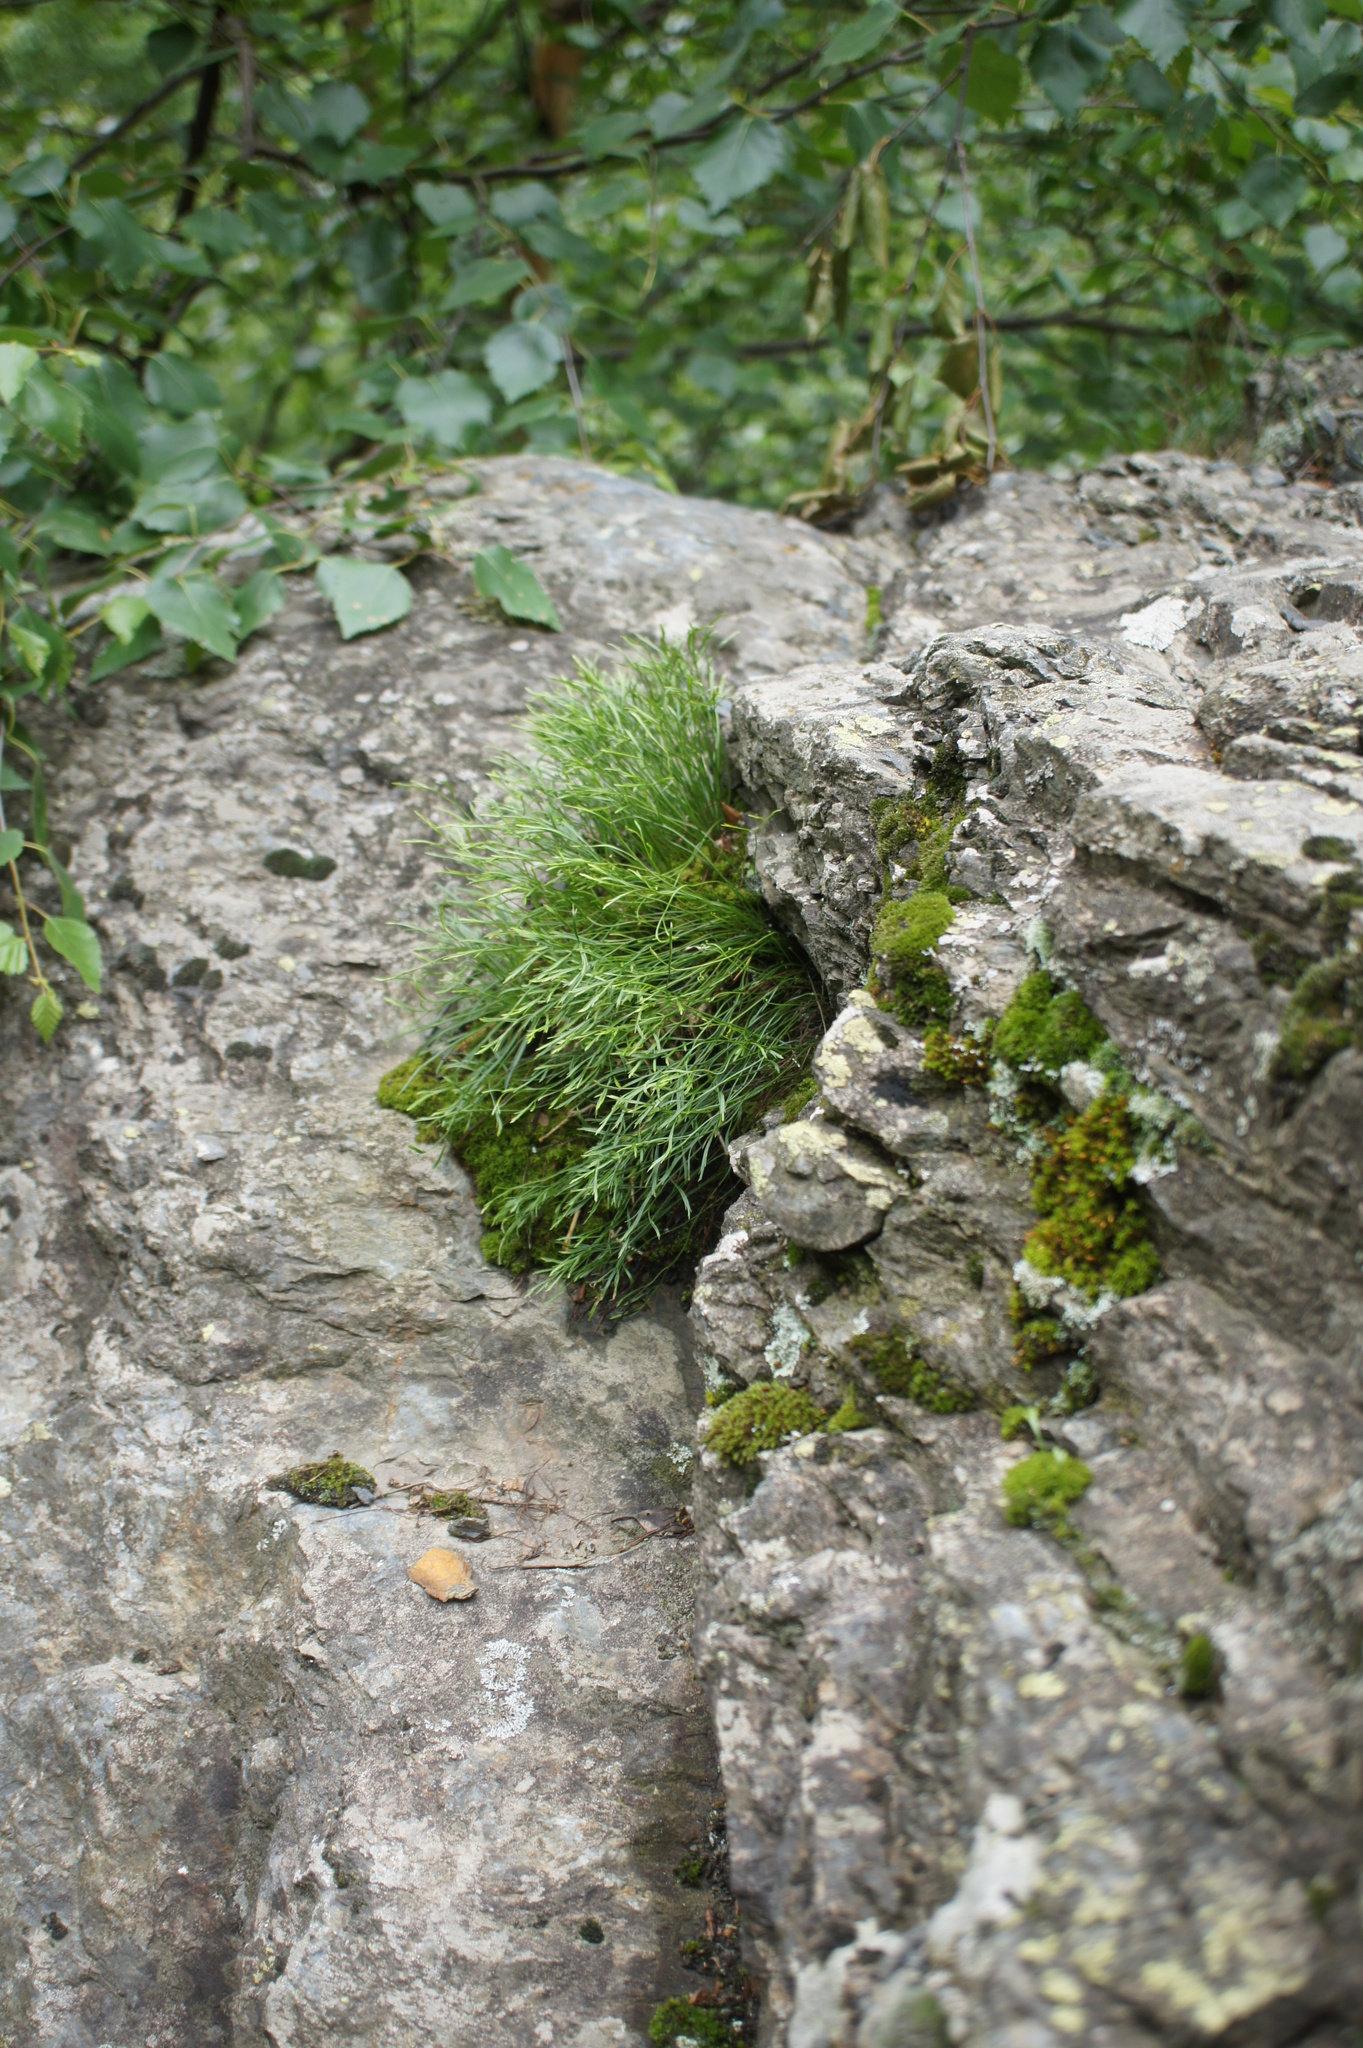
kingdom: Plantae
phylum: Tracheophyta
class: Polypodiopsida
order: Polypodiales
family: Aspleniaceae
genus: Asplenium
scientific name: Asplenium septentrionale
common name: Forked spleenwort
